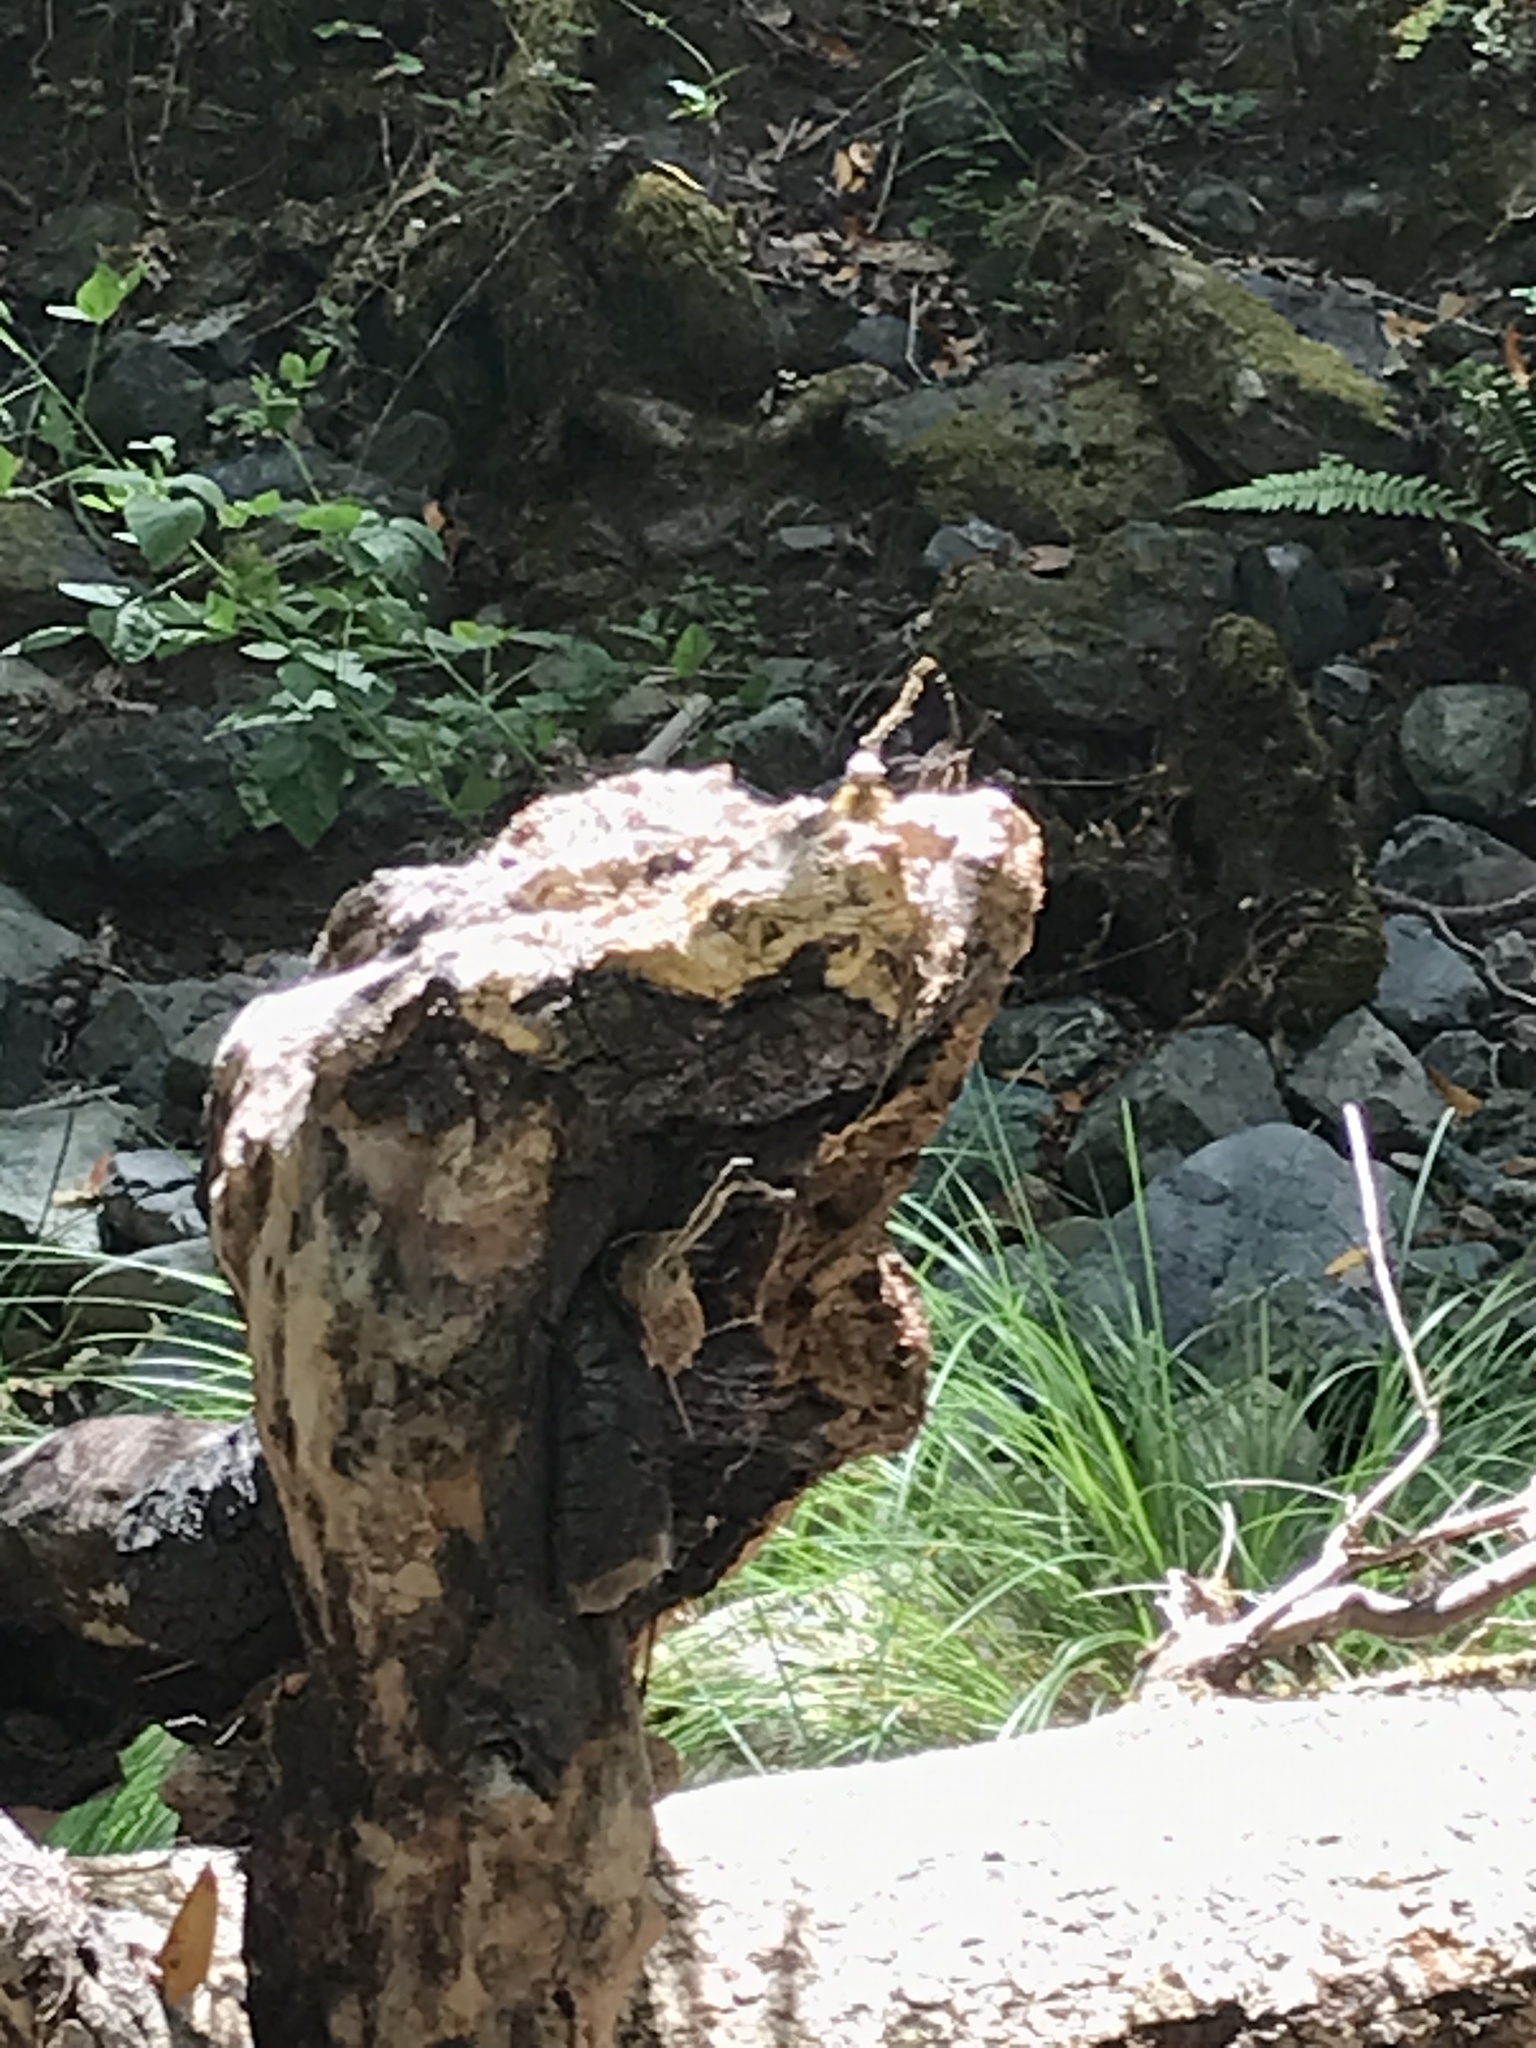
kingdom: Animalia
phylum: Arthropoda
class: Insecta
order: Lepidoptera
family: Nymphalidae
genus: Nymphalis
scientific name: Nymphalis antiopa
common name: Camberwell beauty
